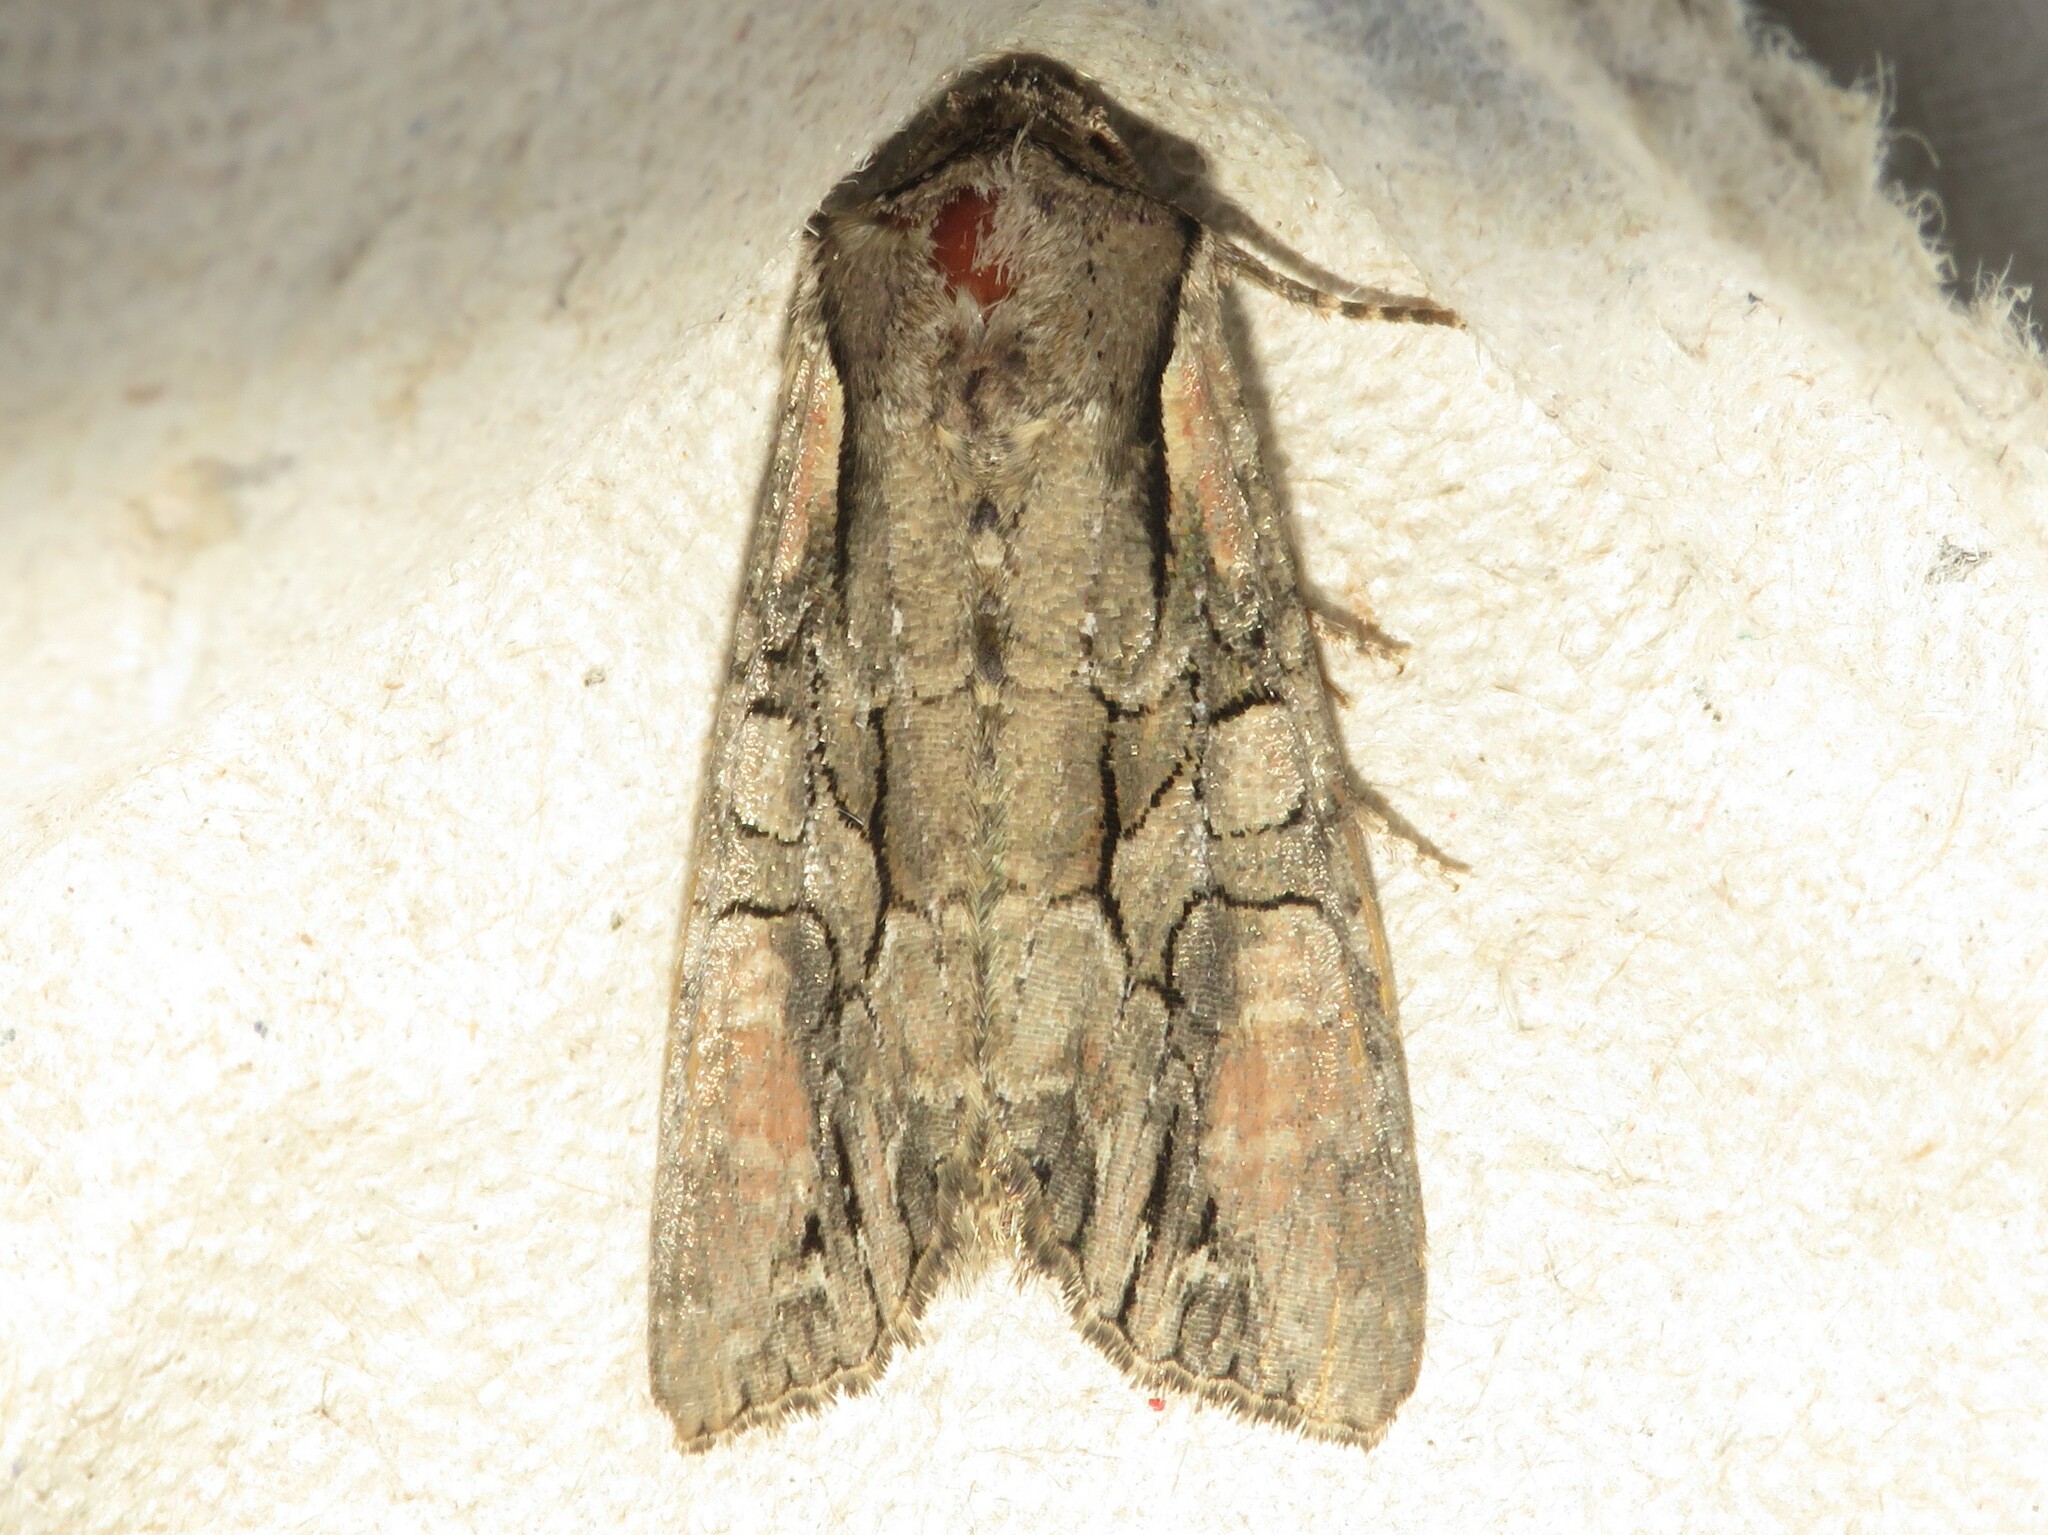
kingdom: Animalia
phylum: Arthropoda
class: Insecta
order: Lepidoptera
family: Noctuidae
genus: Lacanobia
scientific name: Lacanobia subjuncta
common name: Speckled cutworm moth
